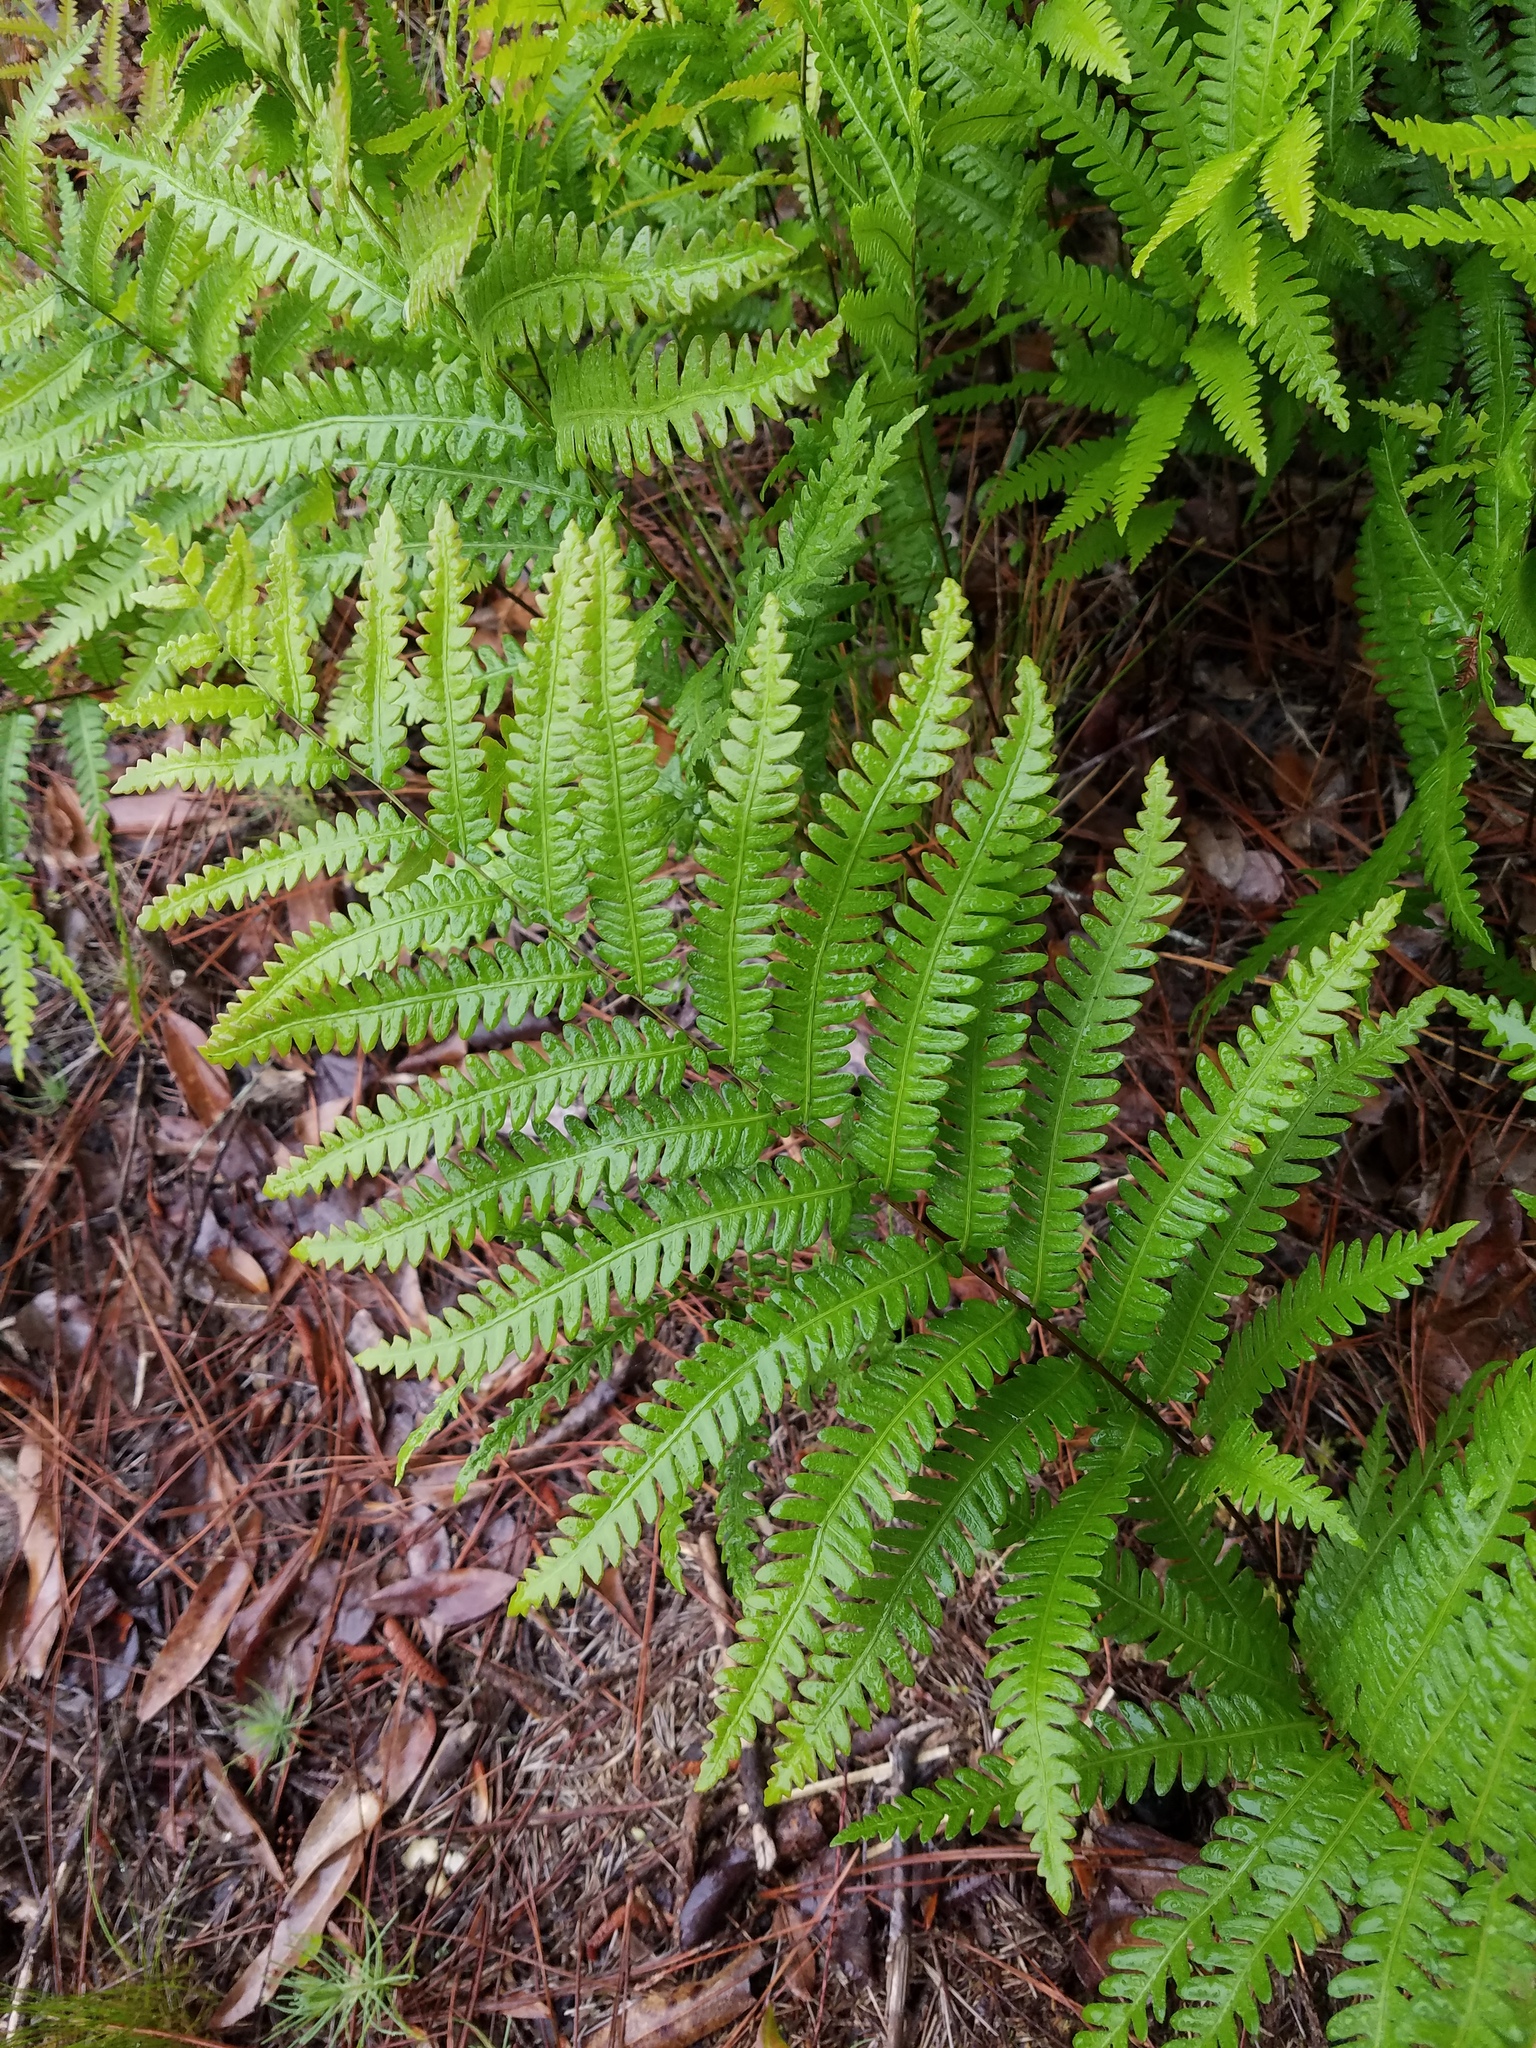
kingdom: Plantae
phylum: Tracheophyta
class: Polypodiopsida
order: Polypodiales
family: Blechnaceae
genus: Anchistea
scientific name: Anchistea virginica
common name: Virginia chain fern
